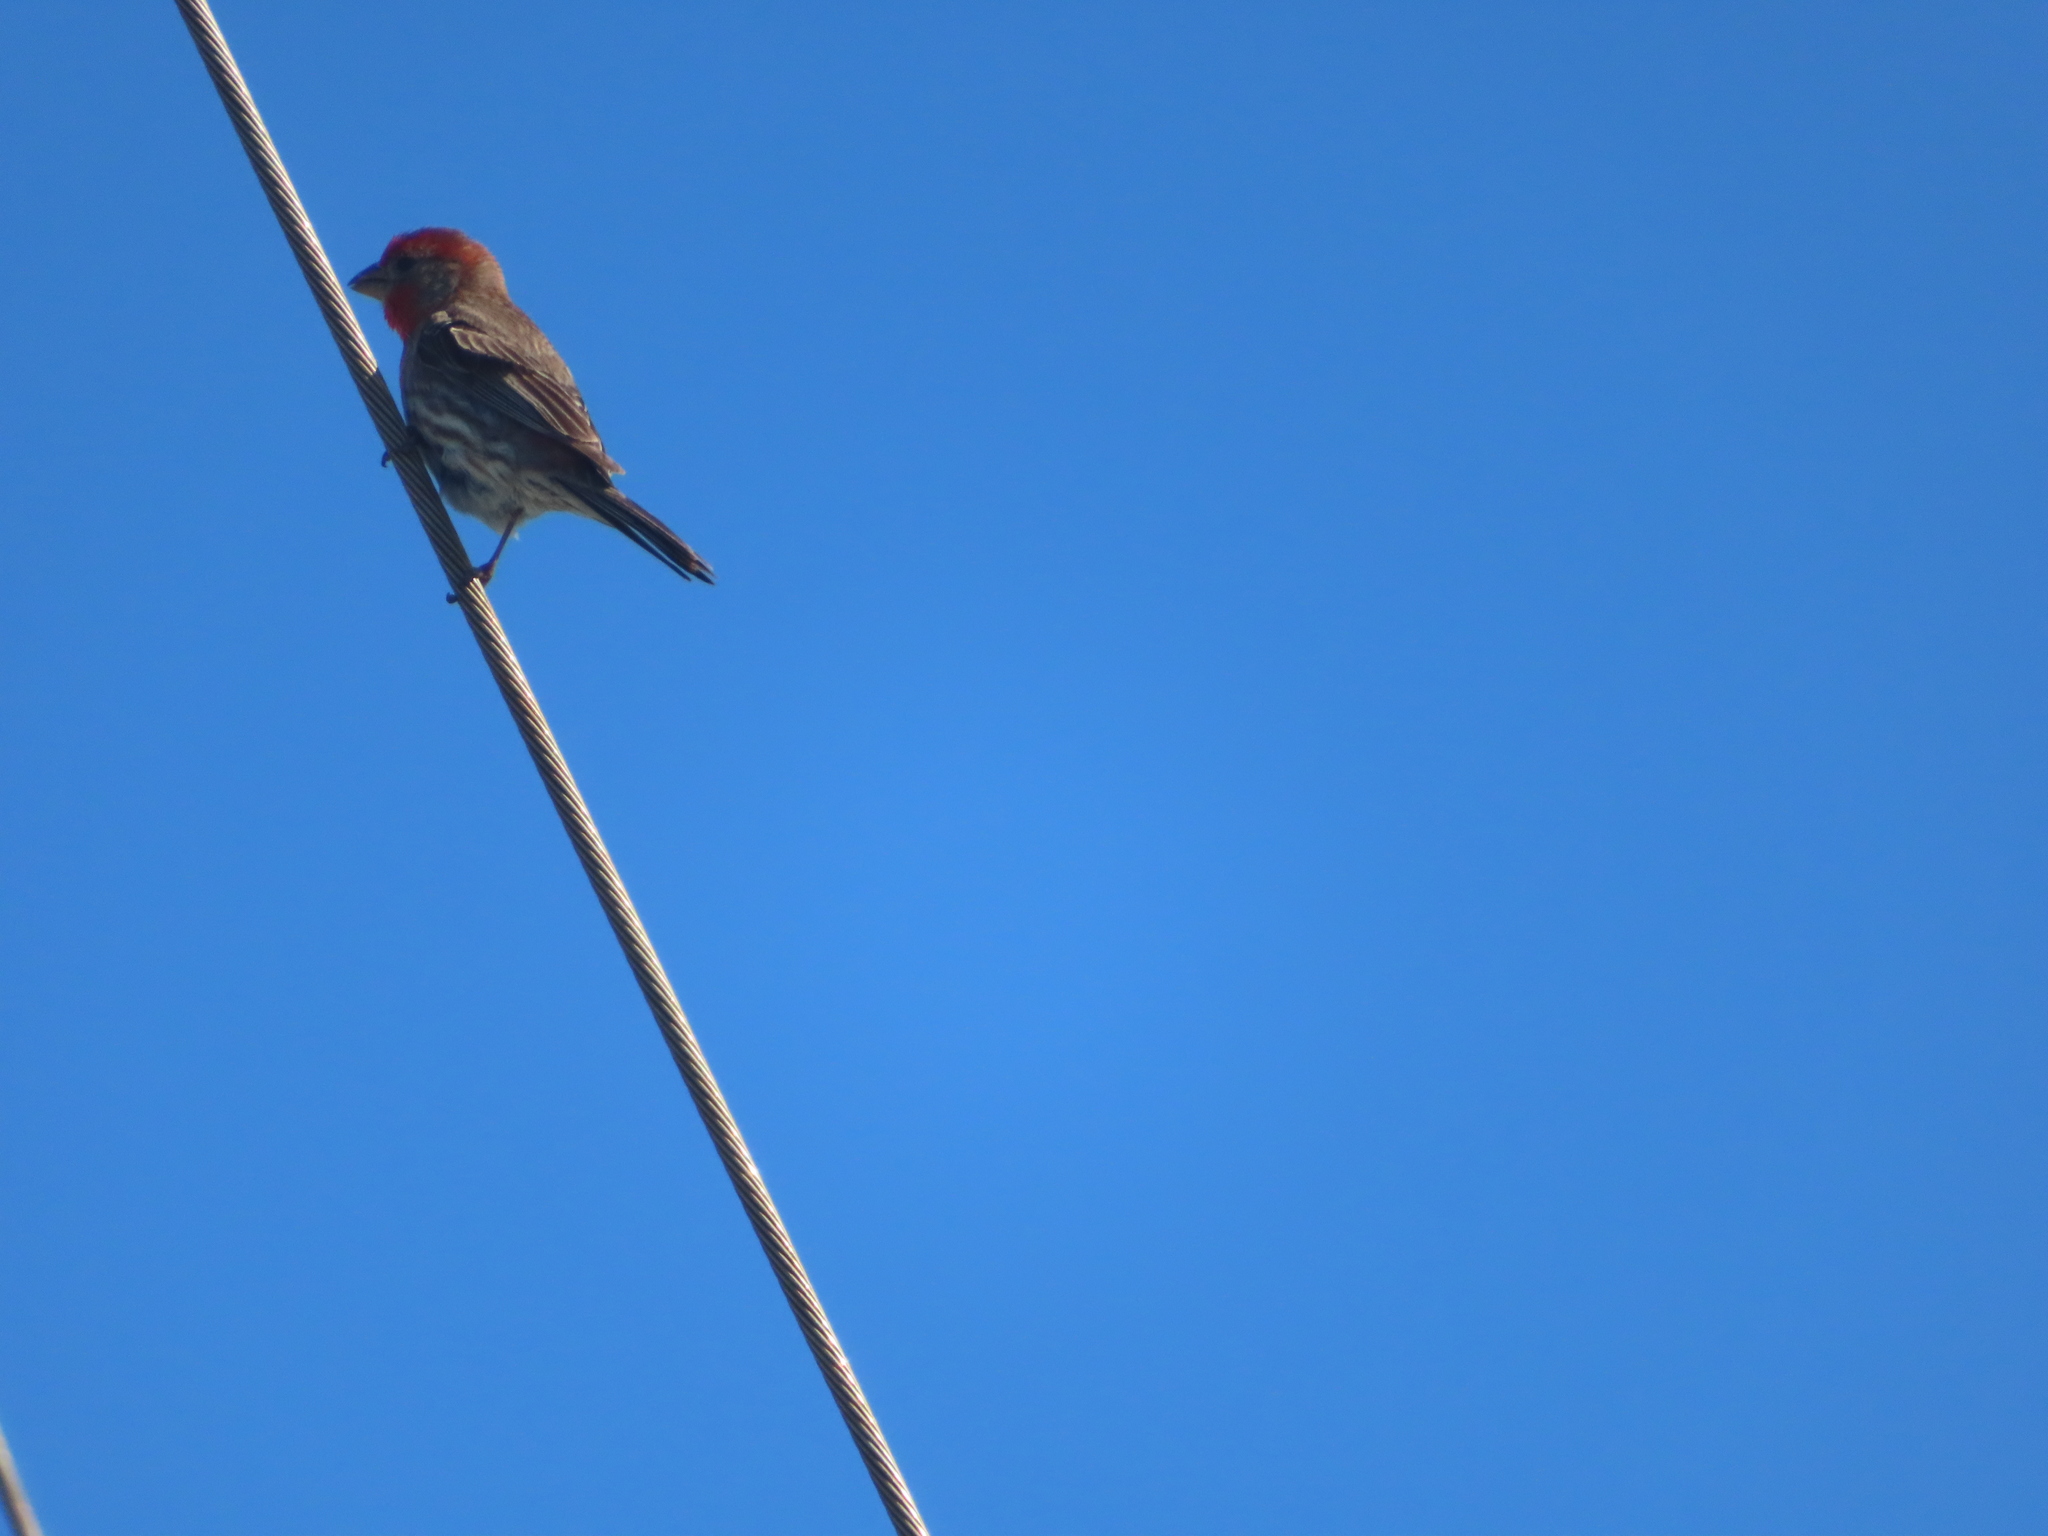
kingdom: Animalia
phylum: Chordata
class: Aves
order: Passeriformes
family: Fringillidae
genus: Haemorhous
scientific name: Haemorhous mexicanus
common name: House finch
